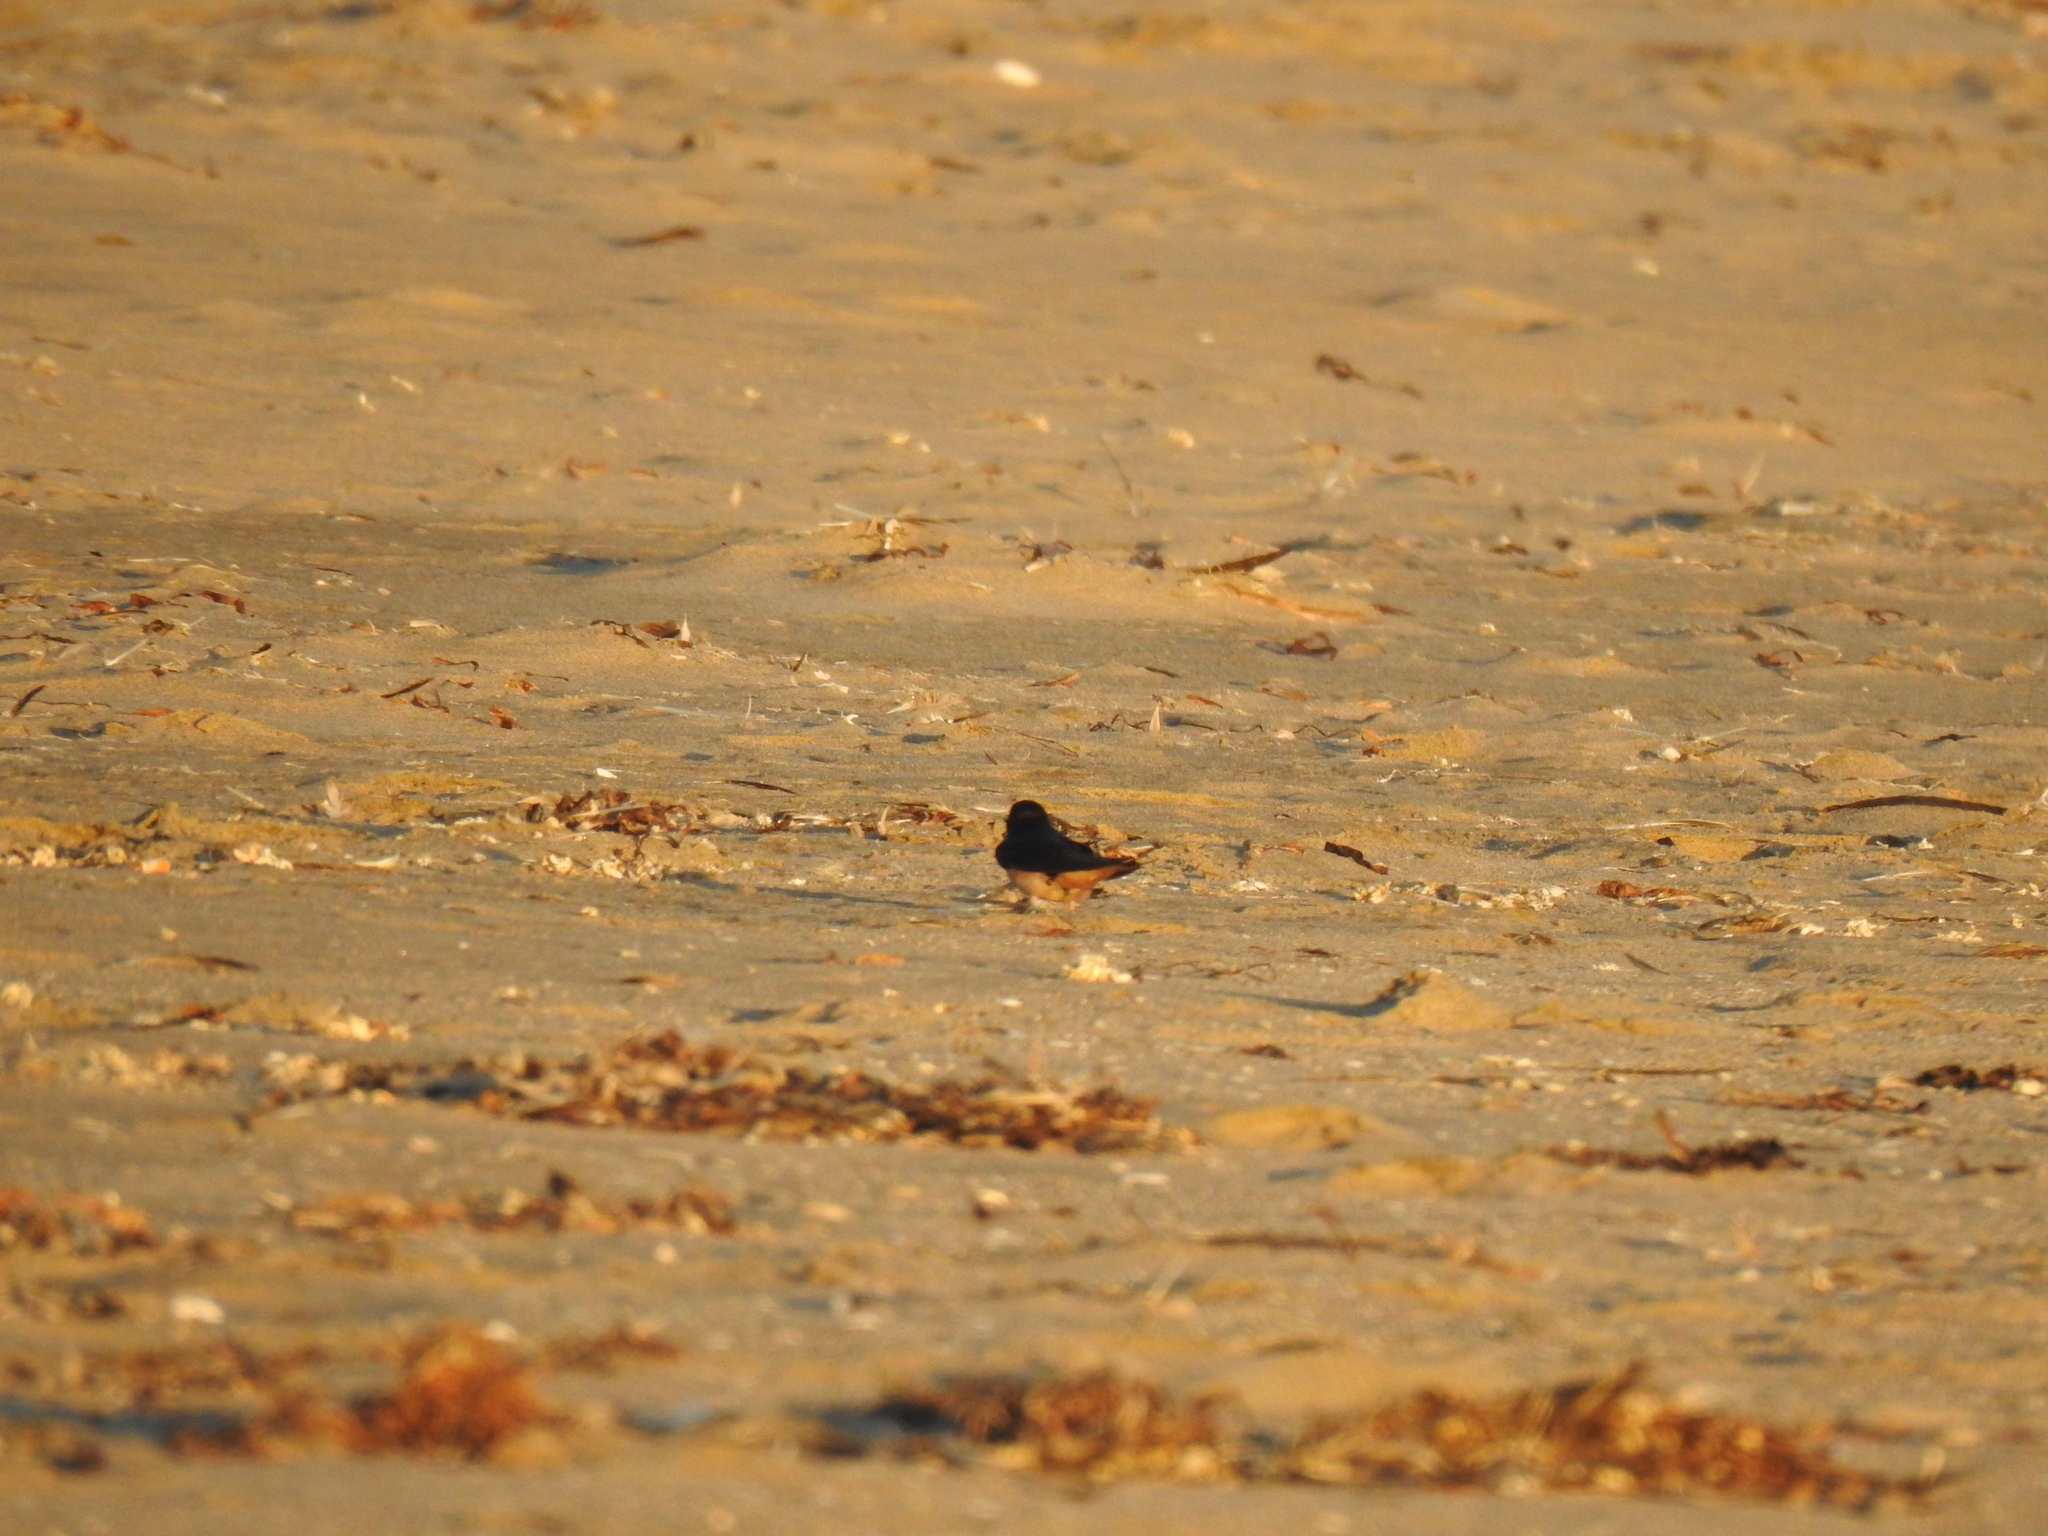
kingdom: Animalia
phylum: Chordata
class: Aves
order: Passeriformes
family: Hirundinidae
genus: Hirundo
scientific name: Hirundo rustica
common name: Barn swallow
